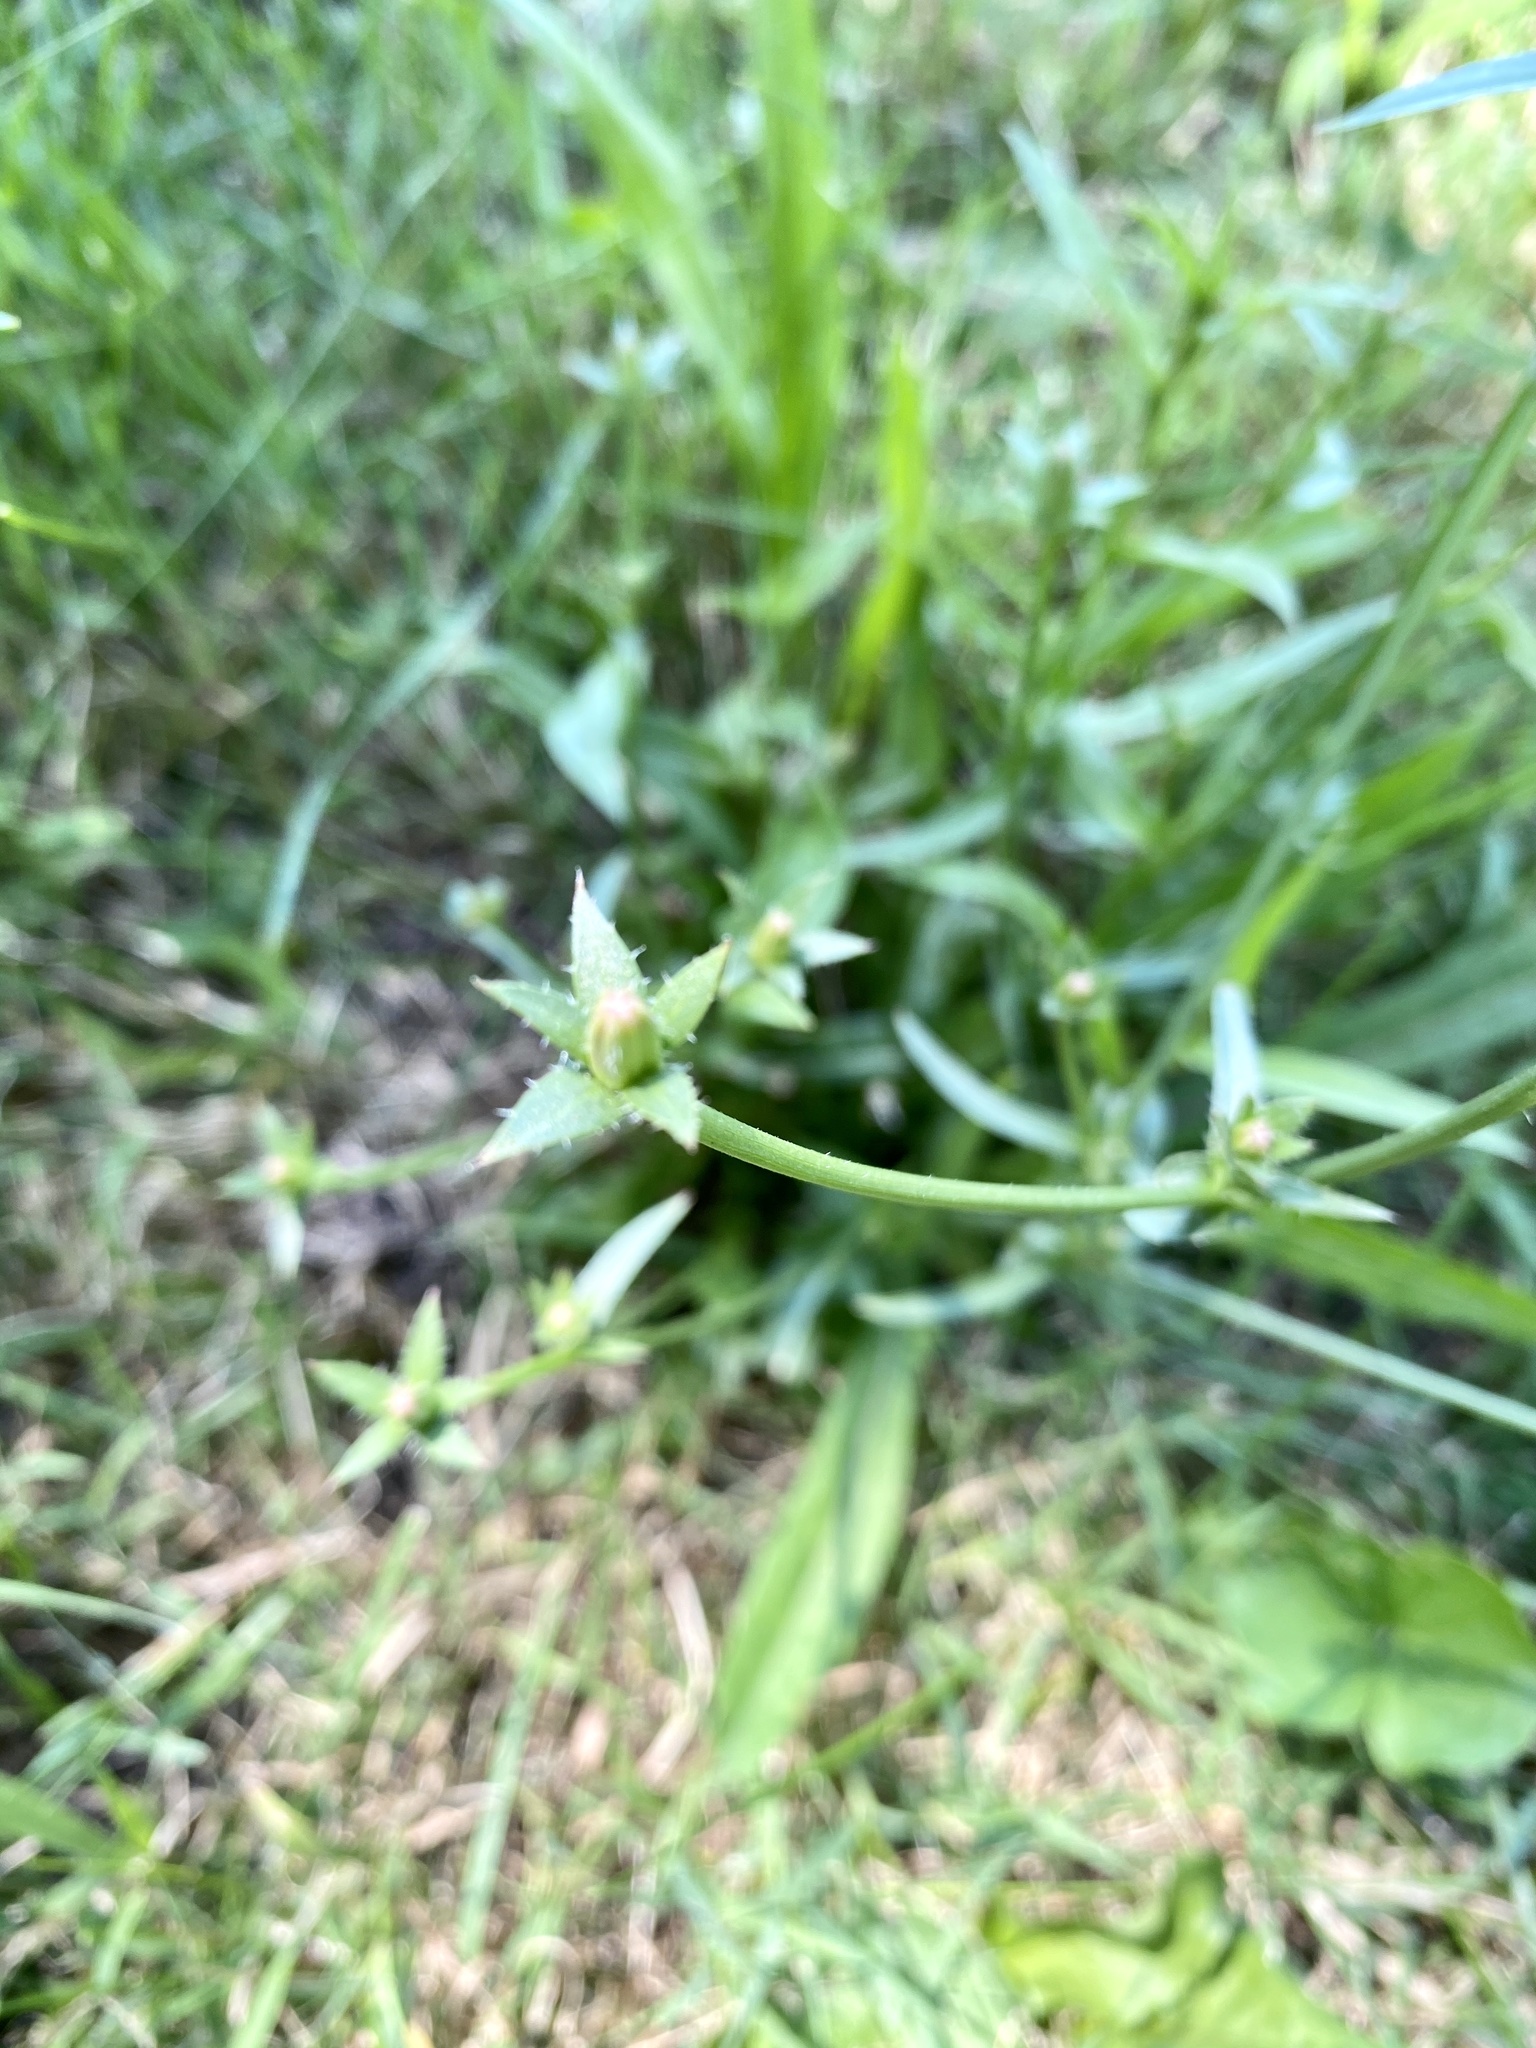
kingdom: Plantae
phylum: Tracheophyta
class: Magnoliopsida
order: Asterales
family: Asteraceae
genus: Cichorium
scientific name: Cichorium intybus
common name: Chicory
